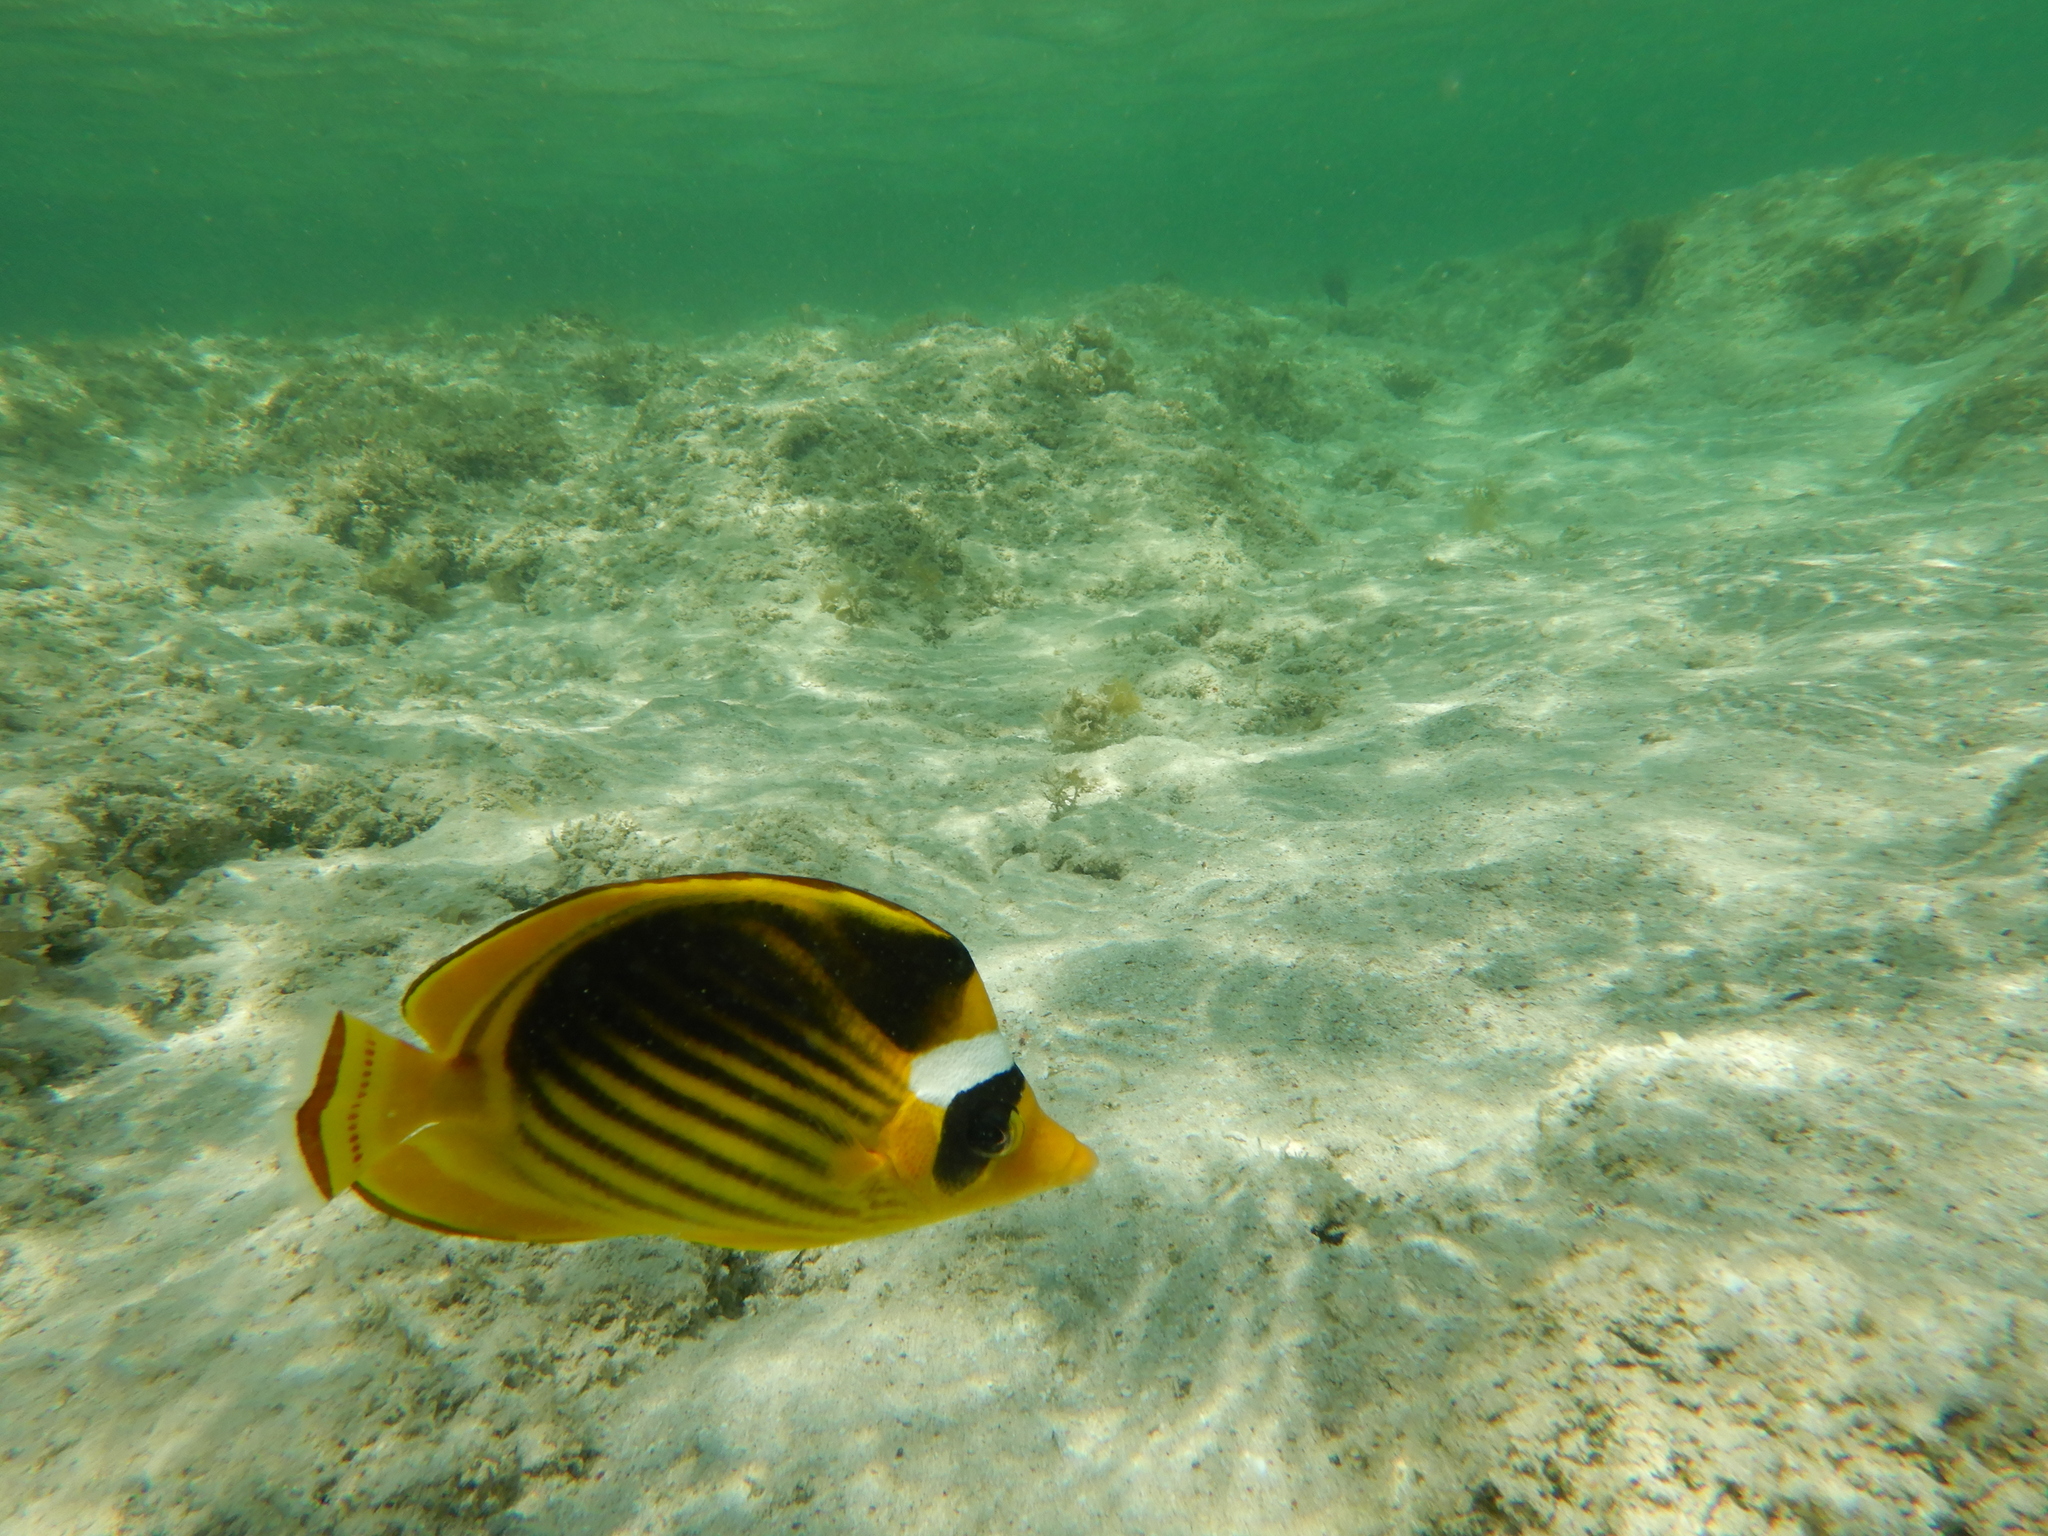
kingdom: Animalia
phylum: Chordata
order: Perciformes
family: Chaetodontidae
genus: Chaetodon
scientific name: Chaetodon fasciatus
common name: Diagonal butterflyfish
